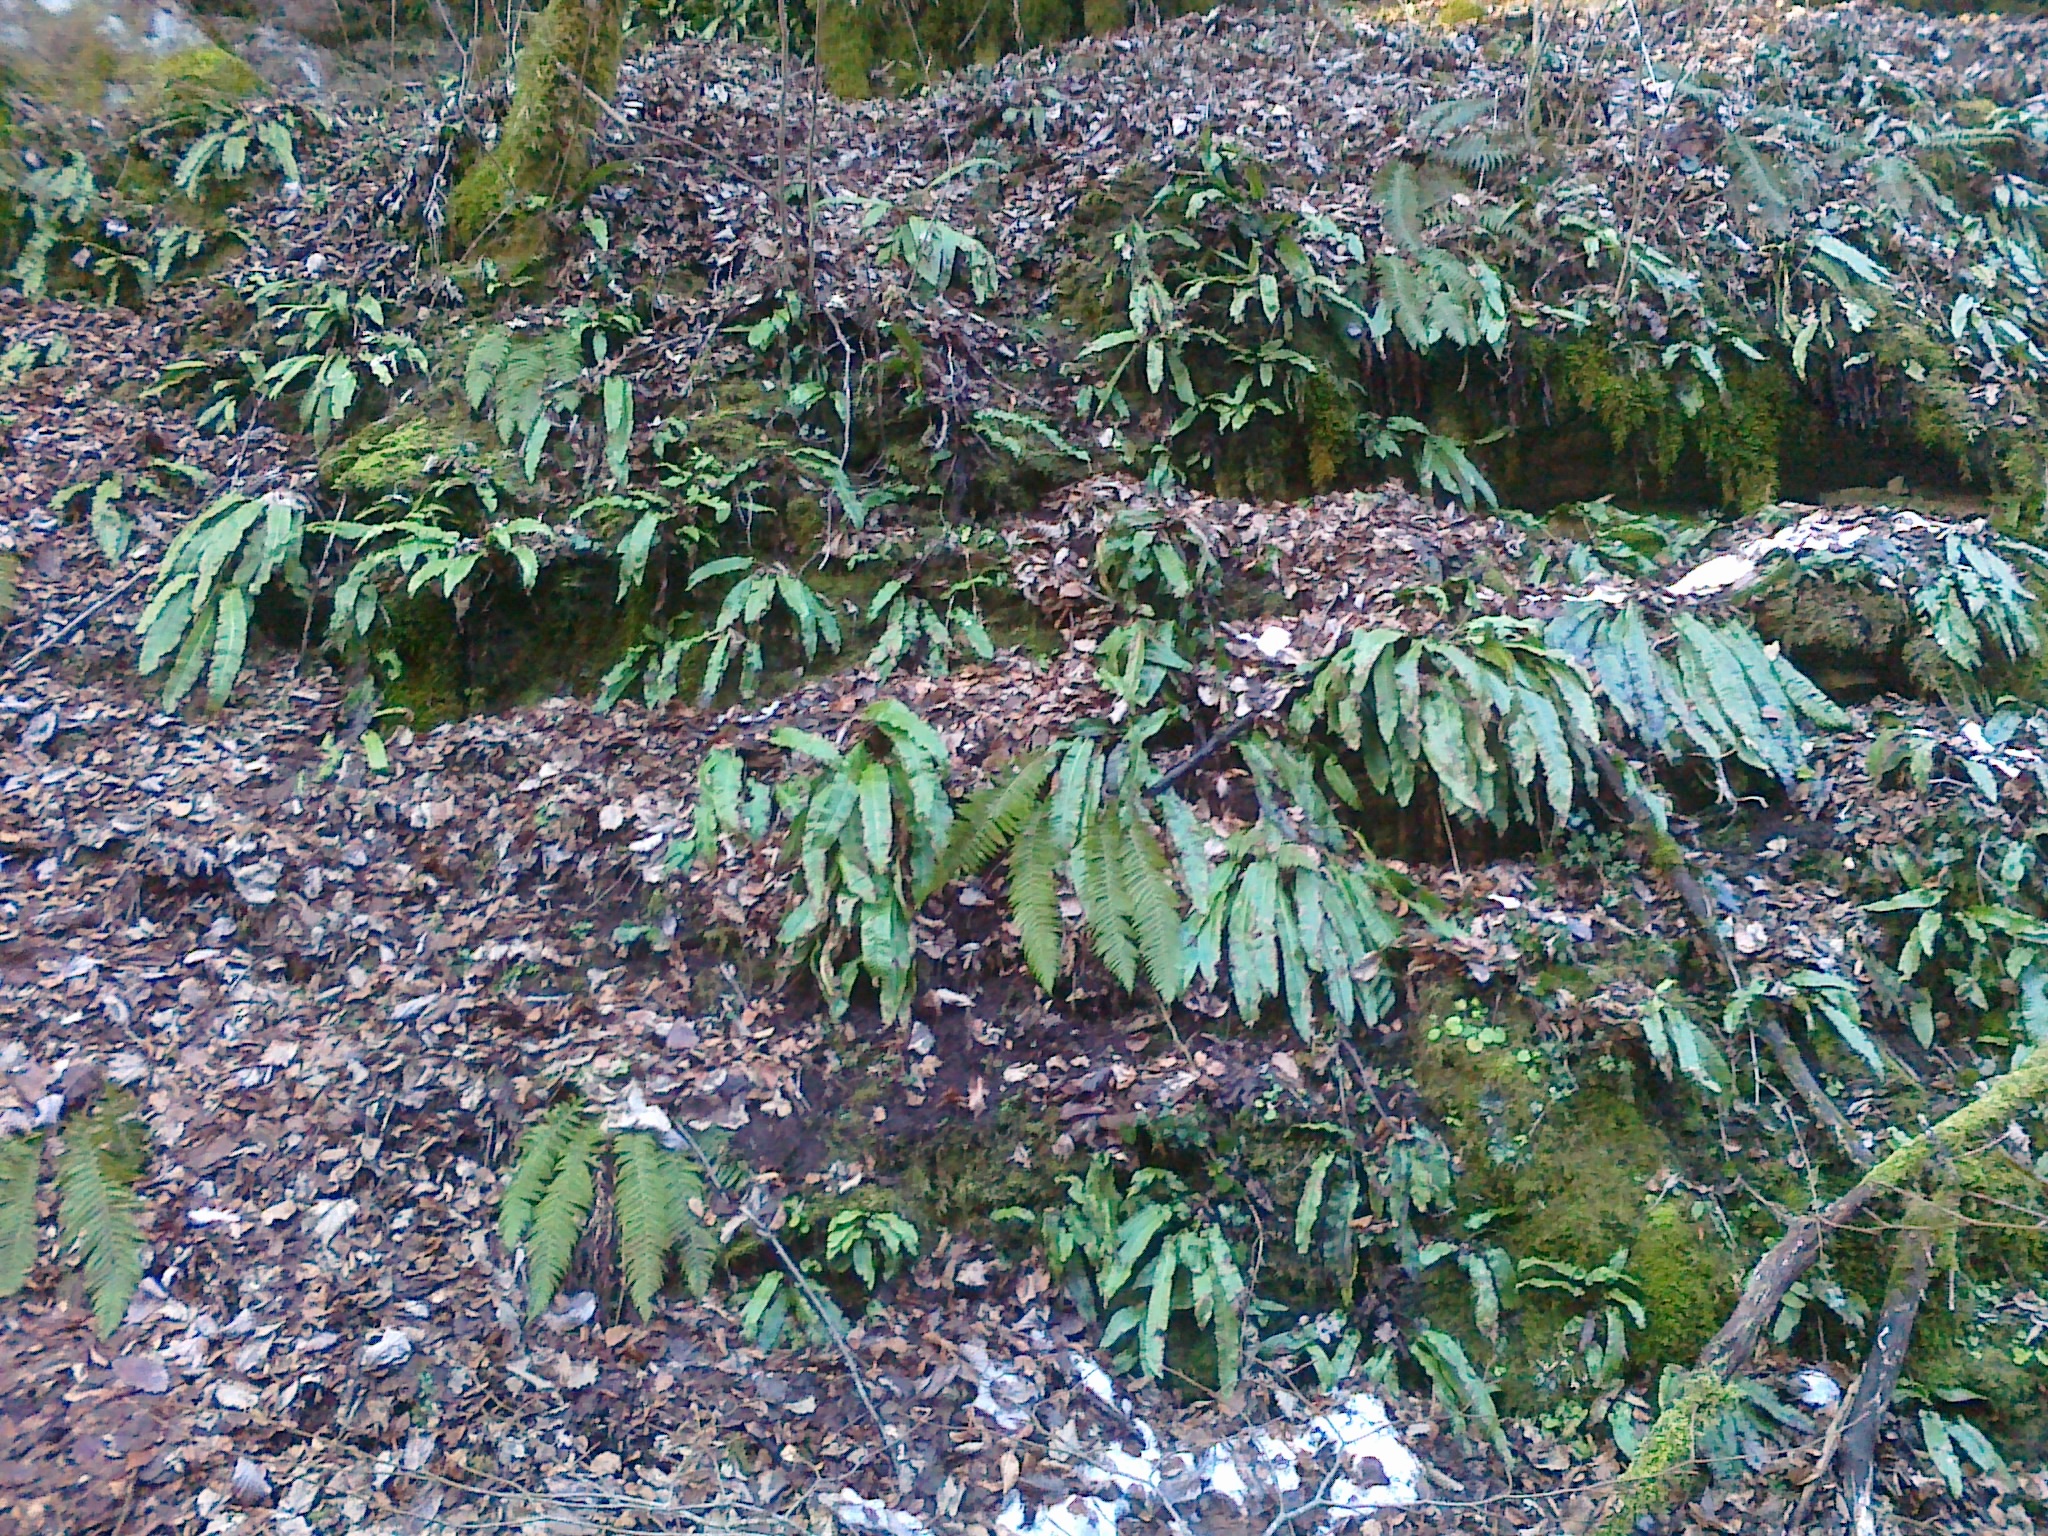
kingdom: Plantae
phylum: Tracheophyta
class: Polypodiopsida
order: Polypodiales
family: Aspleniaceae
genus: Asplenium
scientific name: Asplenium scolopendrium
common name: Hart's-tongue fern
